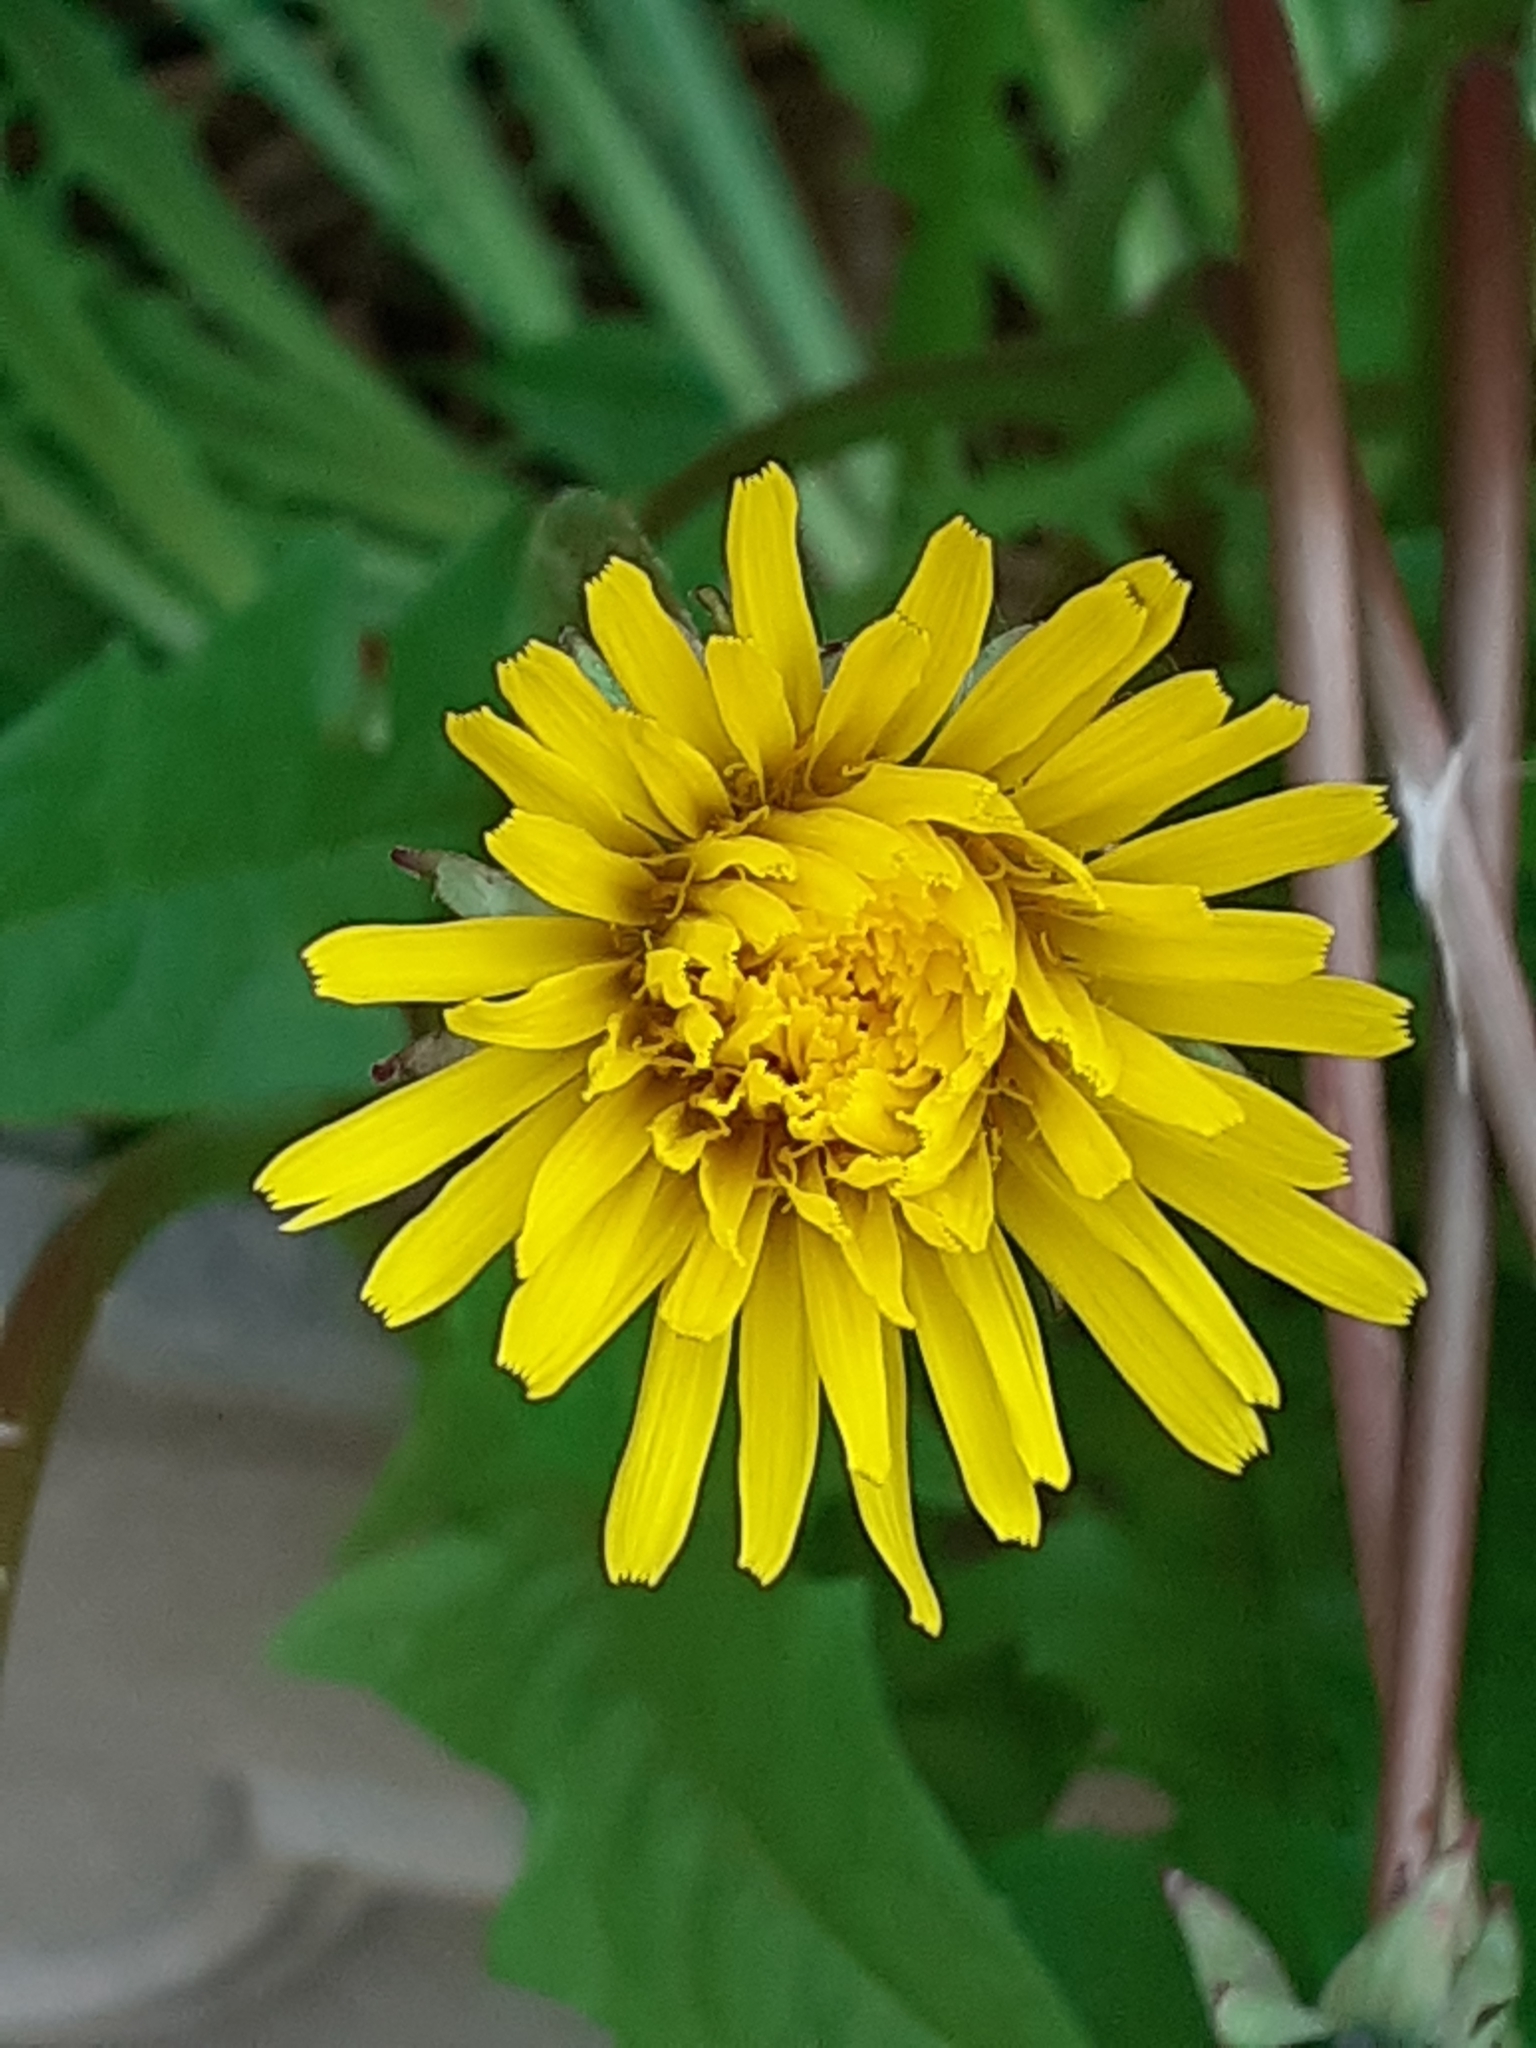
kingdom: Plantae
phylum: Tracheophyta
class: Magnoliopsida
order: Asterales
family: Asteraceae
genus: Taraxacum
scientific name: Taraxacum officinale
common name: Common dandelion
